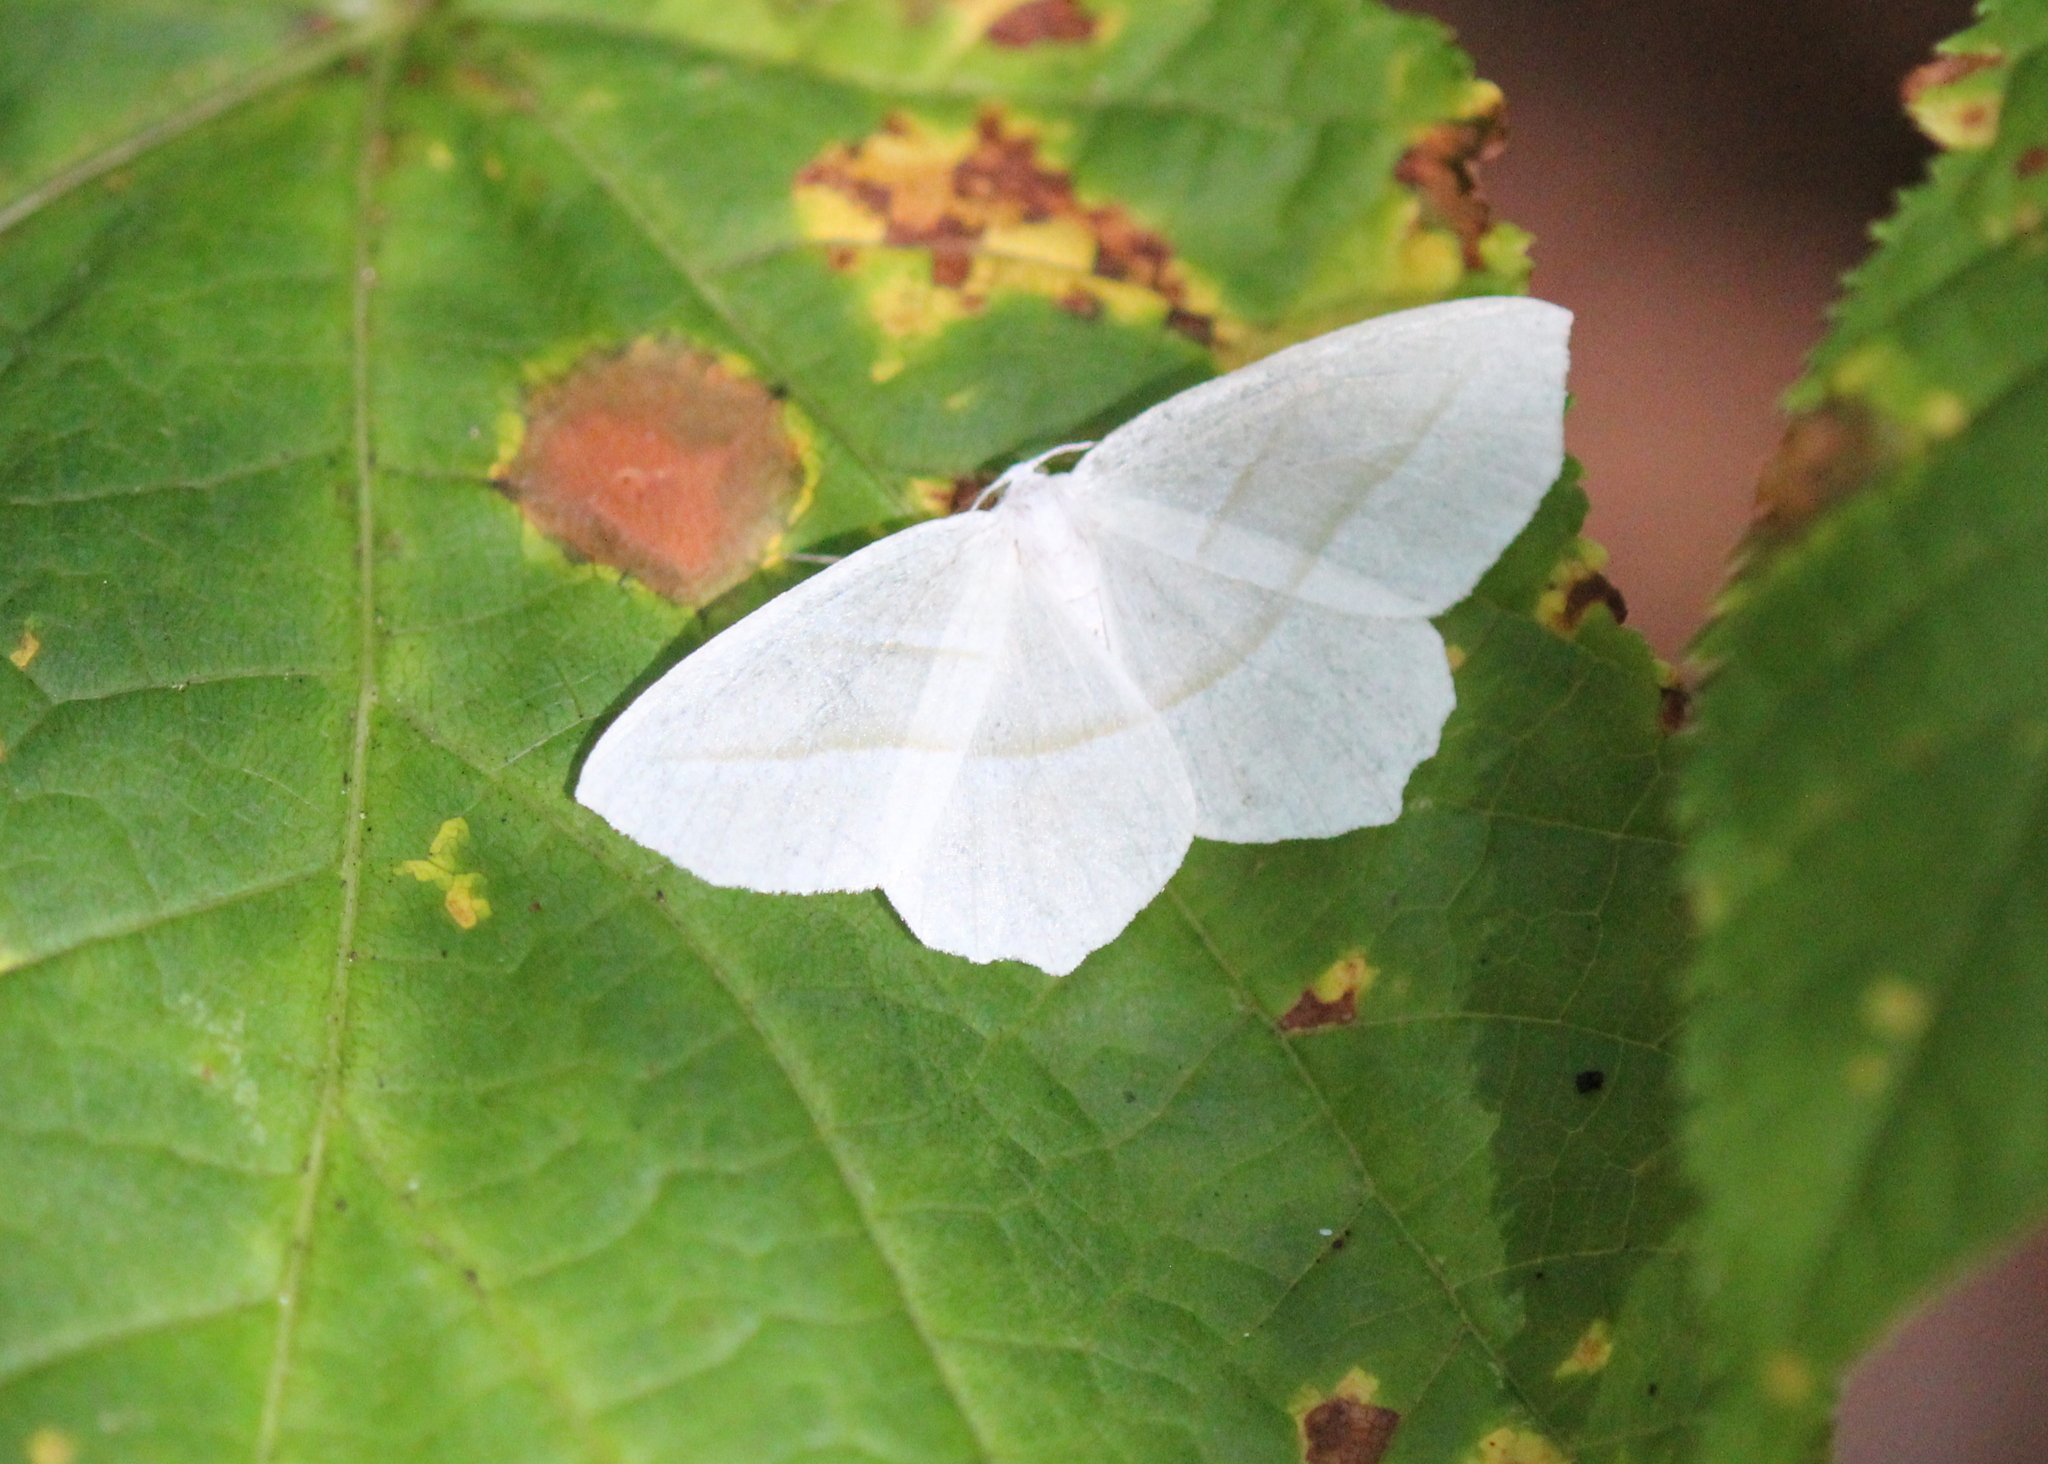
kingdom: Animalia
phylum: Arthropoda
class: Insecta
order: Lepidoptera
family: Geometridae
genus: Campaea
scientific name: Campaea perlata
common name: Fringed looper
